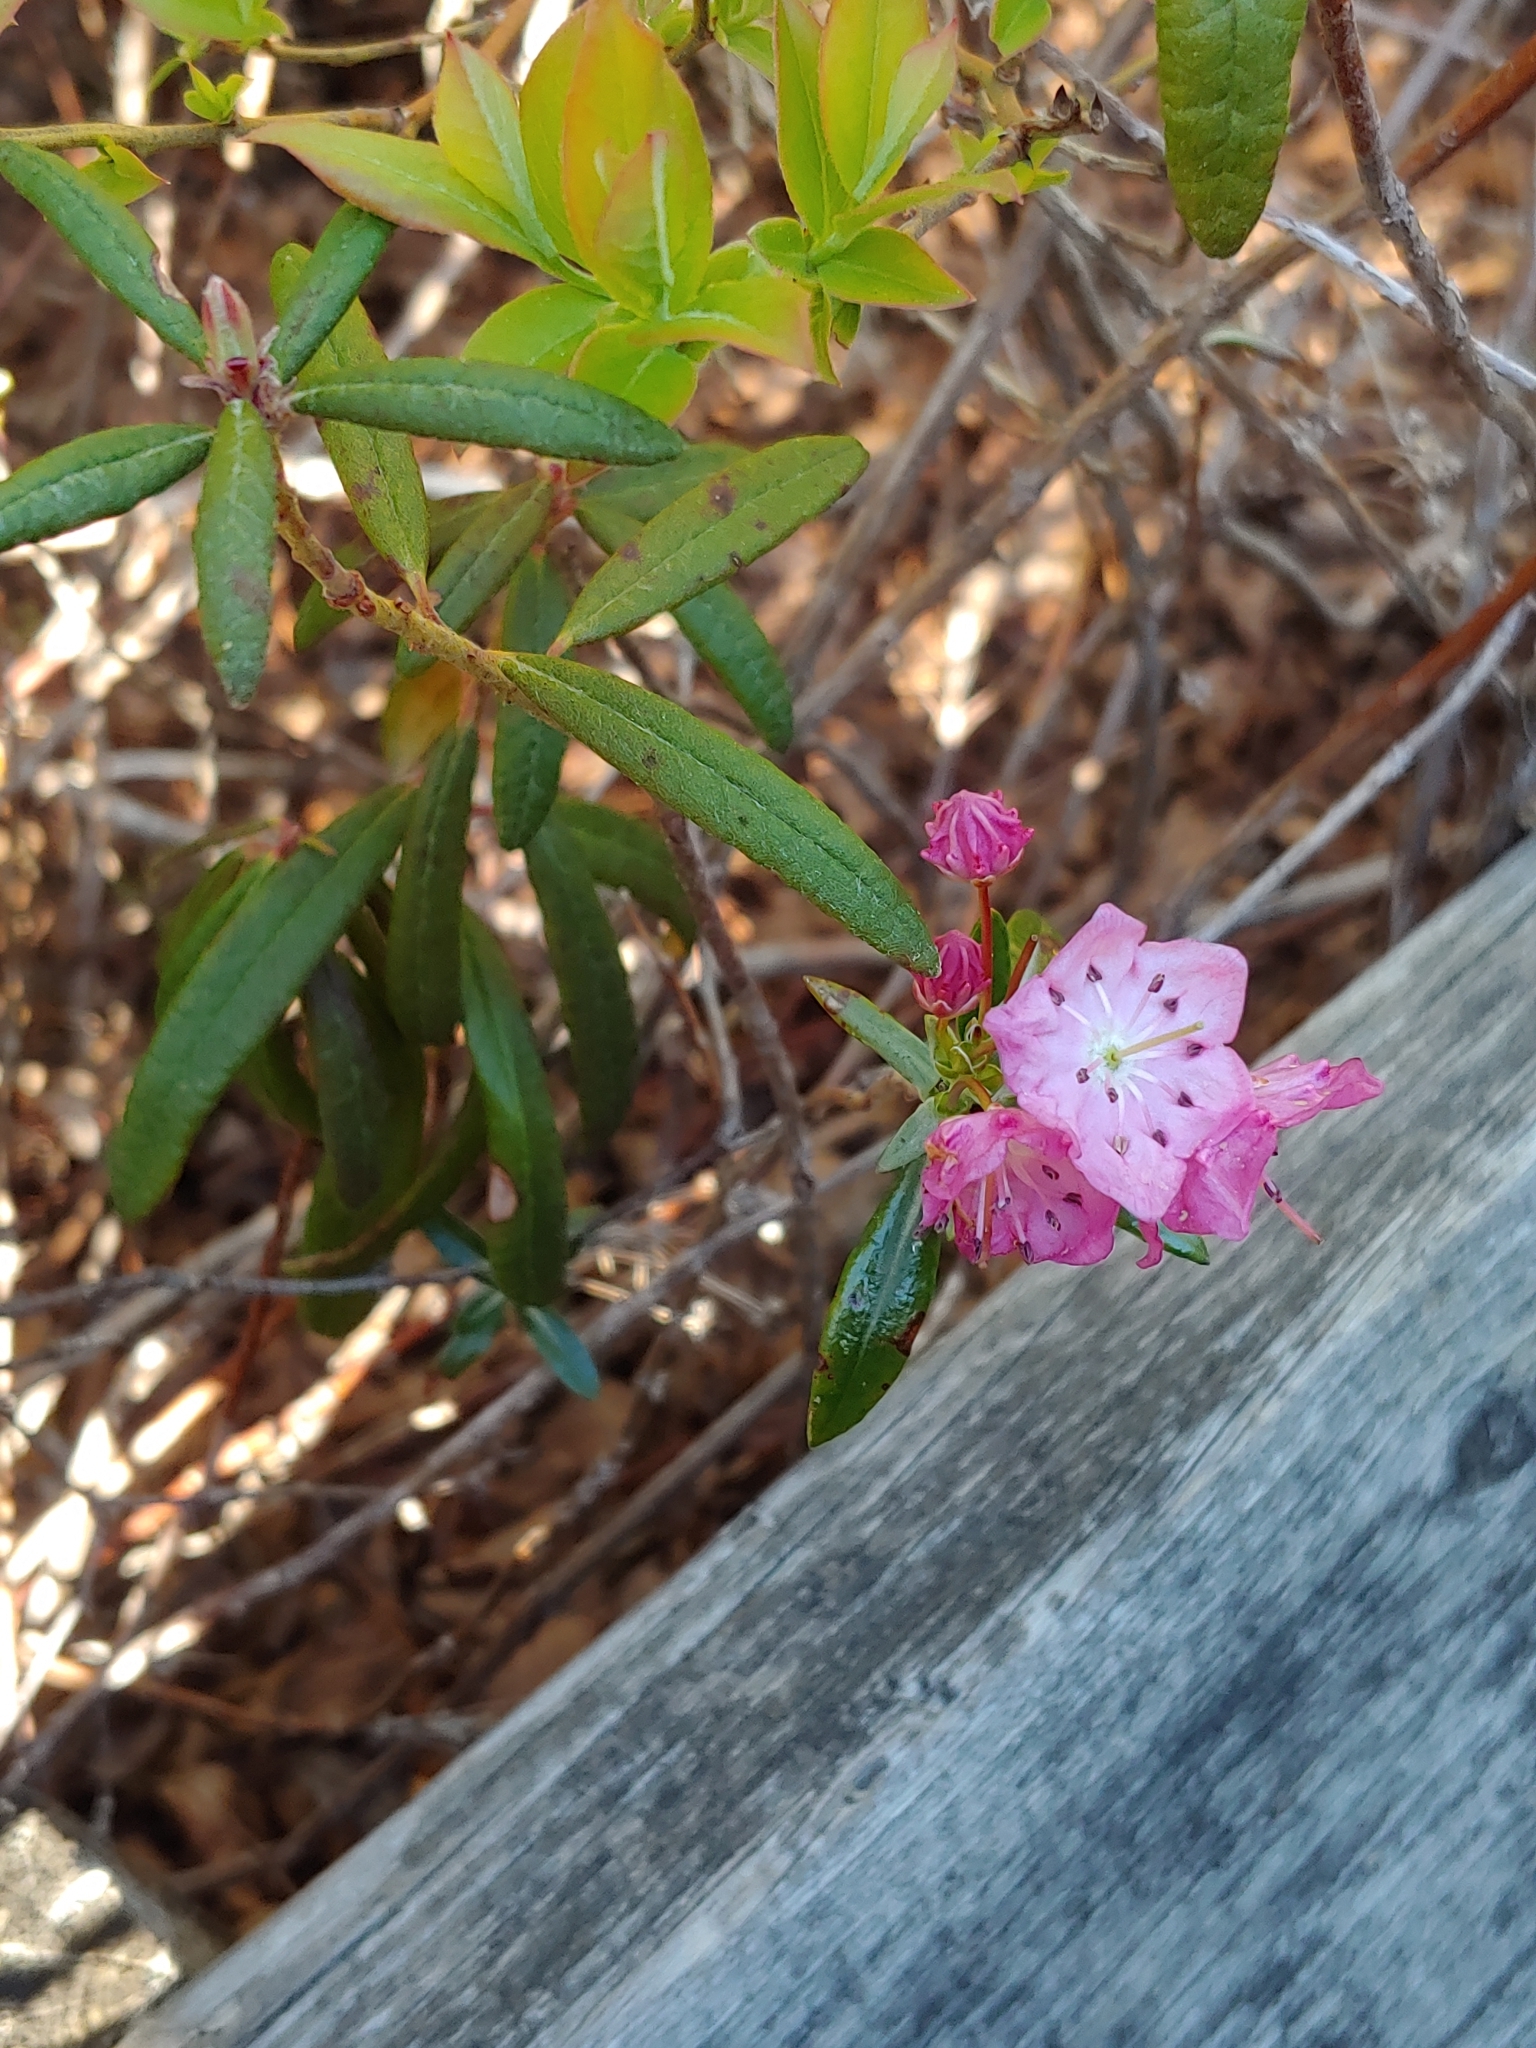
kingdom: Plantae
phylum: Tracheophyta
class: Magnoliopsida
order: Ericales
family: Ericaceae
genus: Kalmia
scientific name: Kalmia microphylla
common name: Alpine bog laurel
